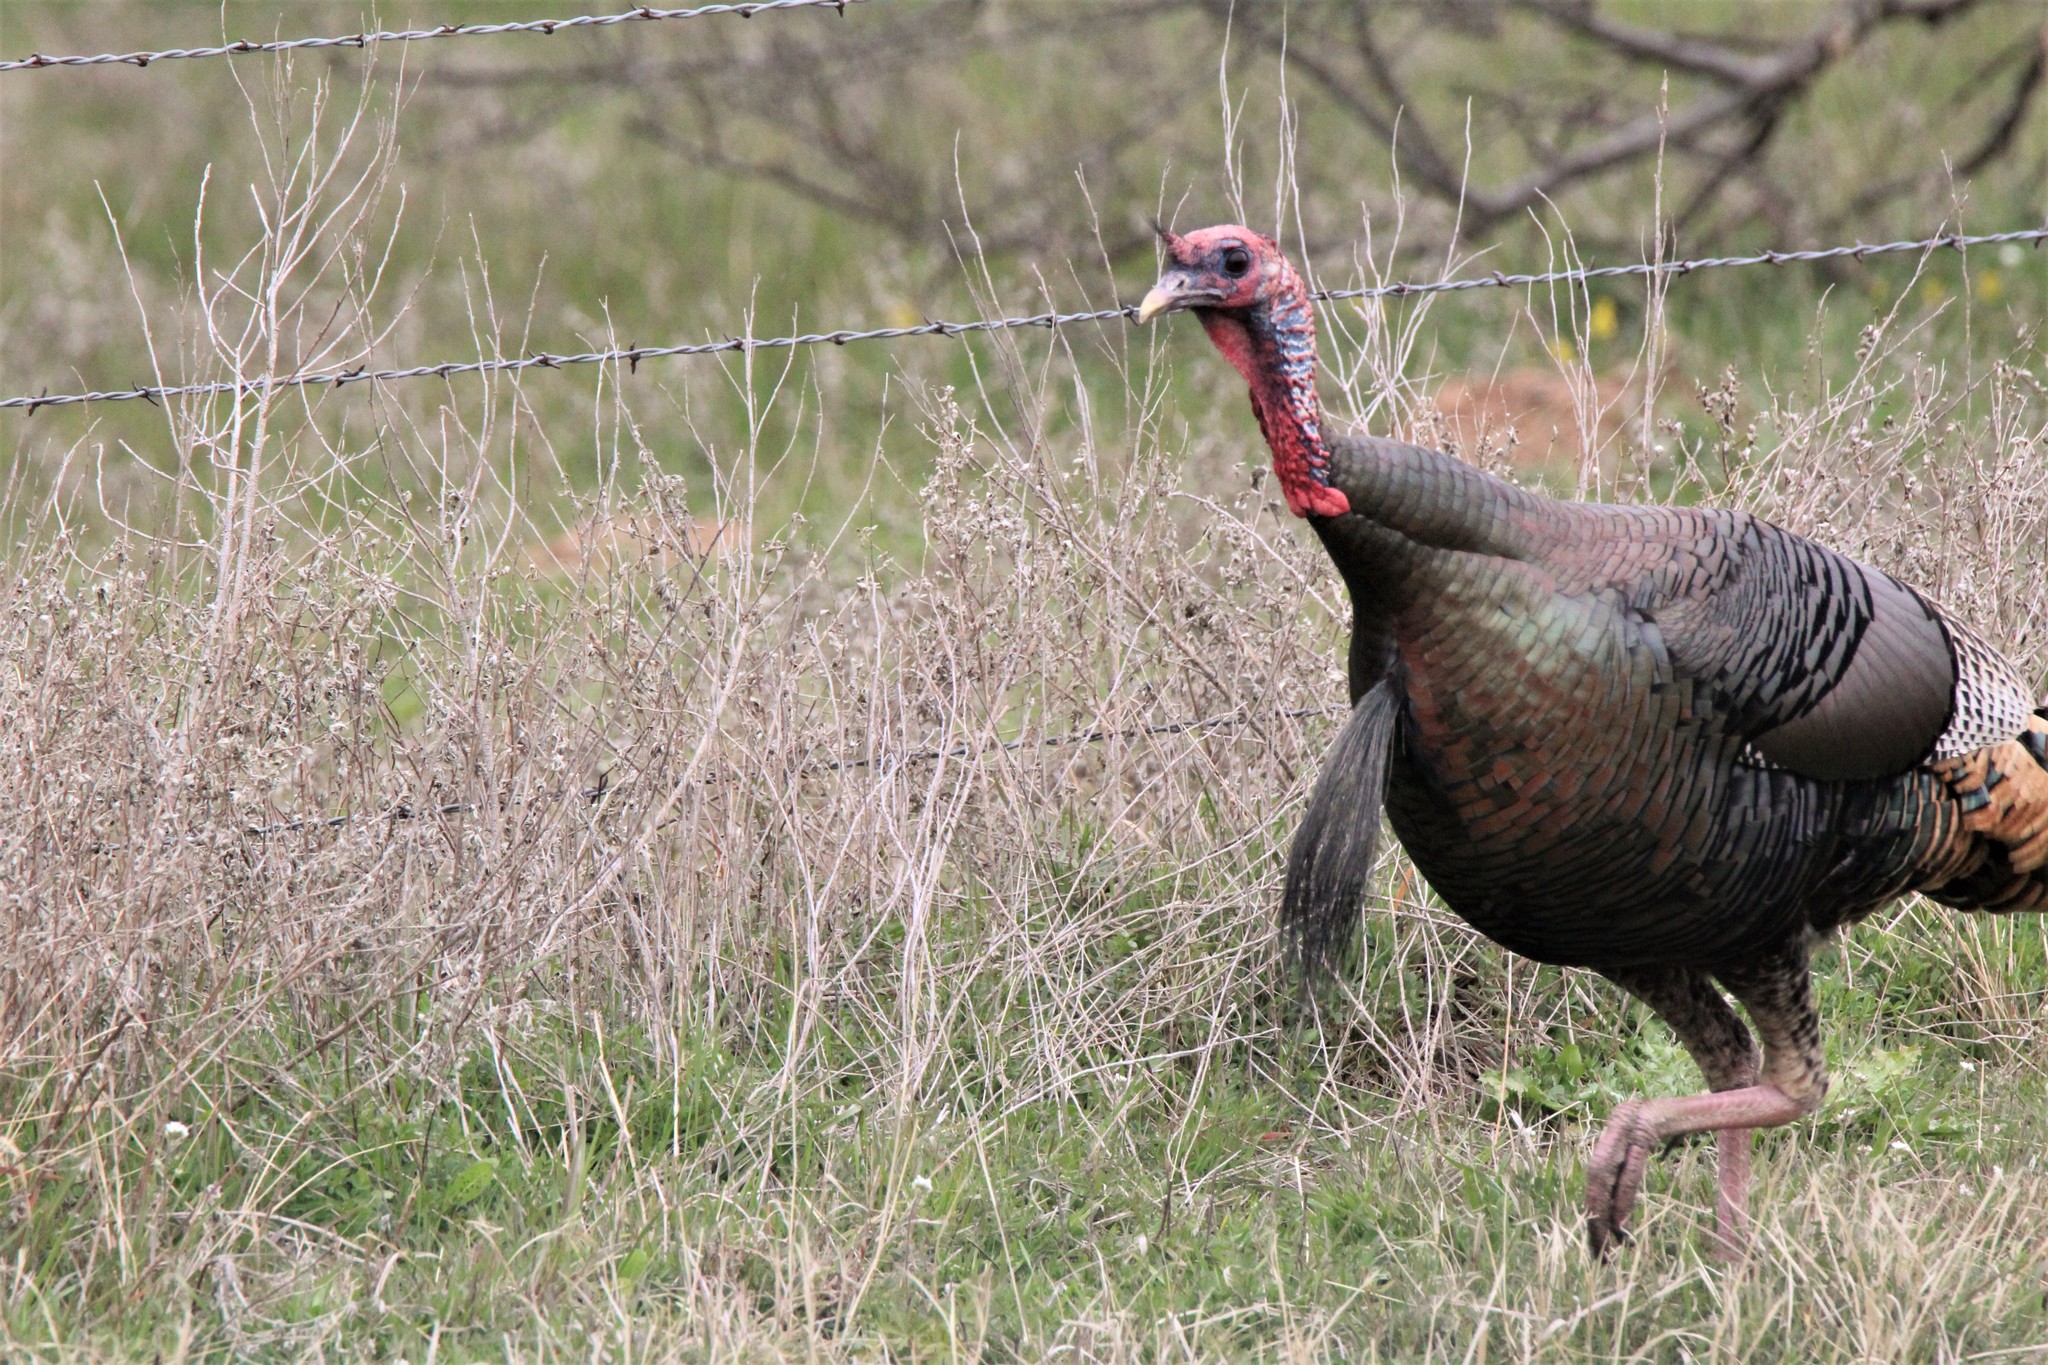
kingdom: Animalia
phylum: Chordata
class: Aves
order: Galliformes
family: Phasianidae
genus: Meleagris
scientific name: Meleagris gallopavo
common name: Wild turkey
